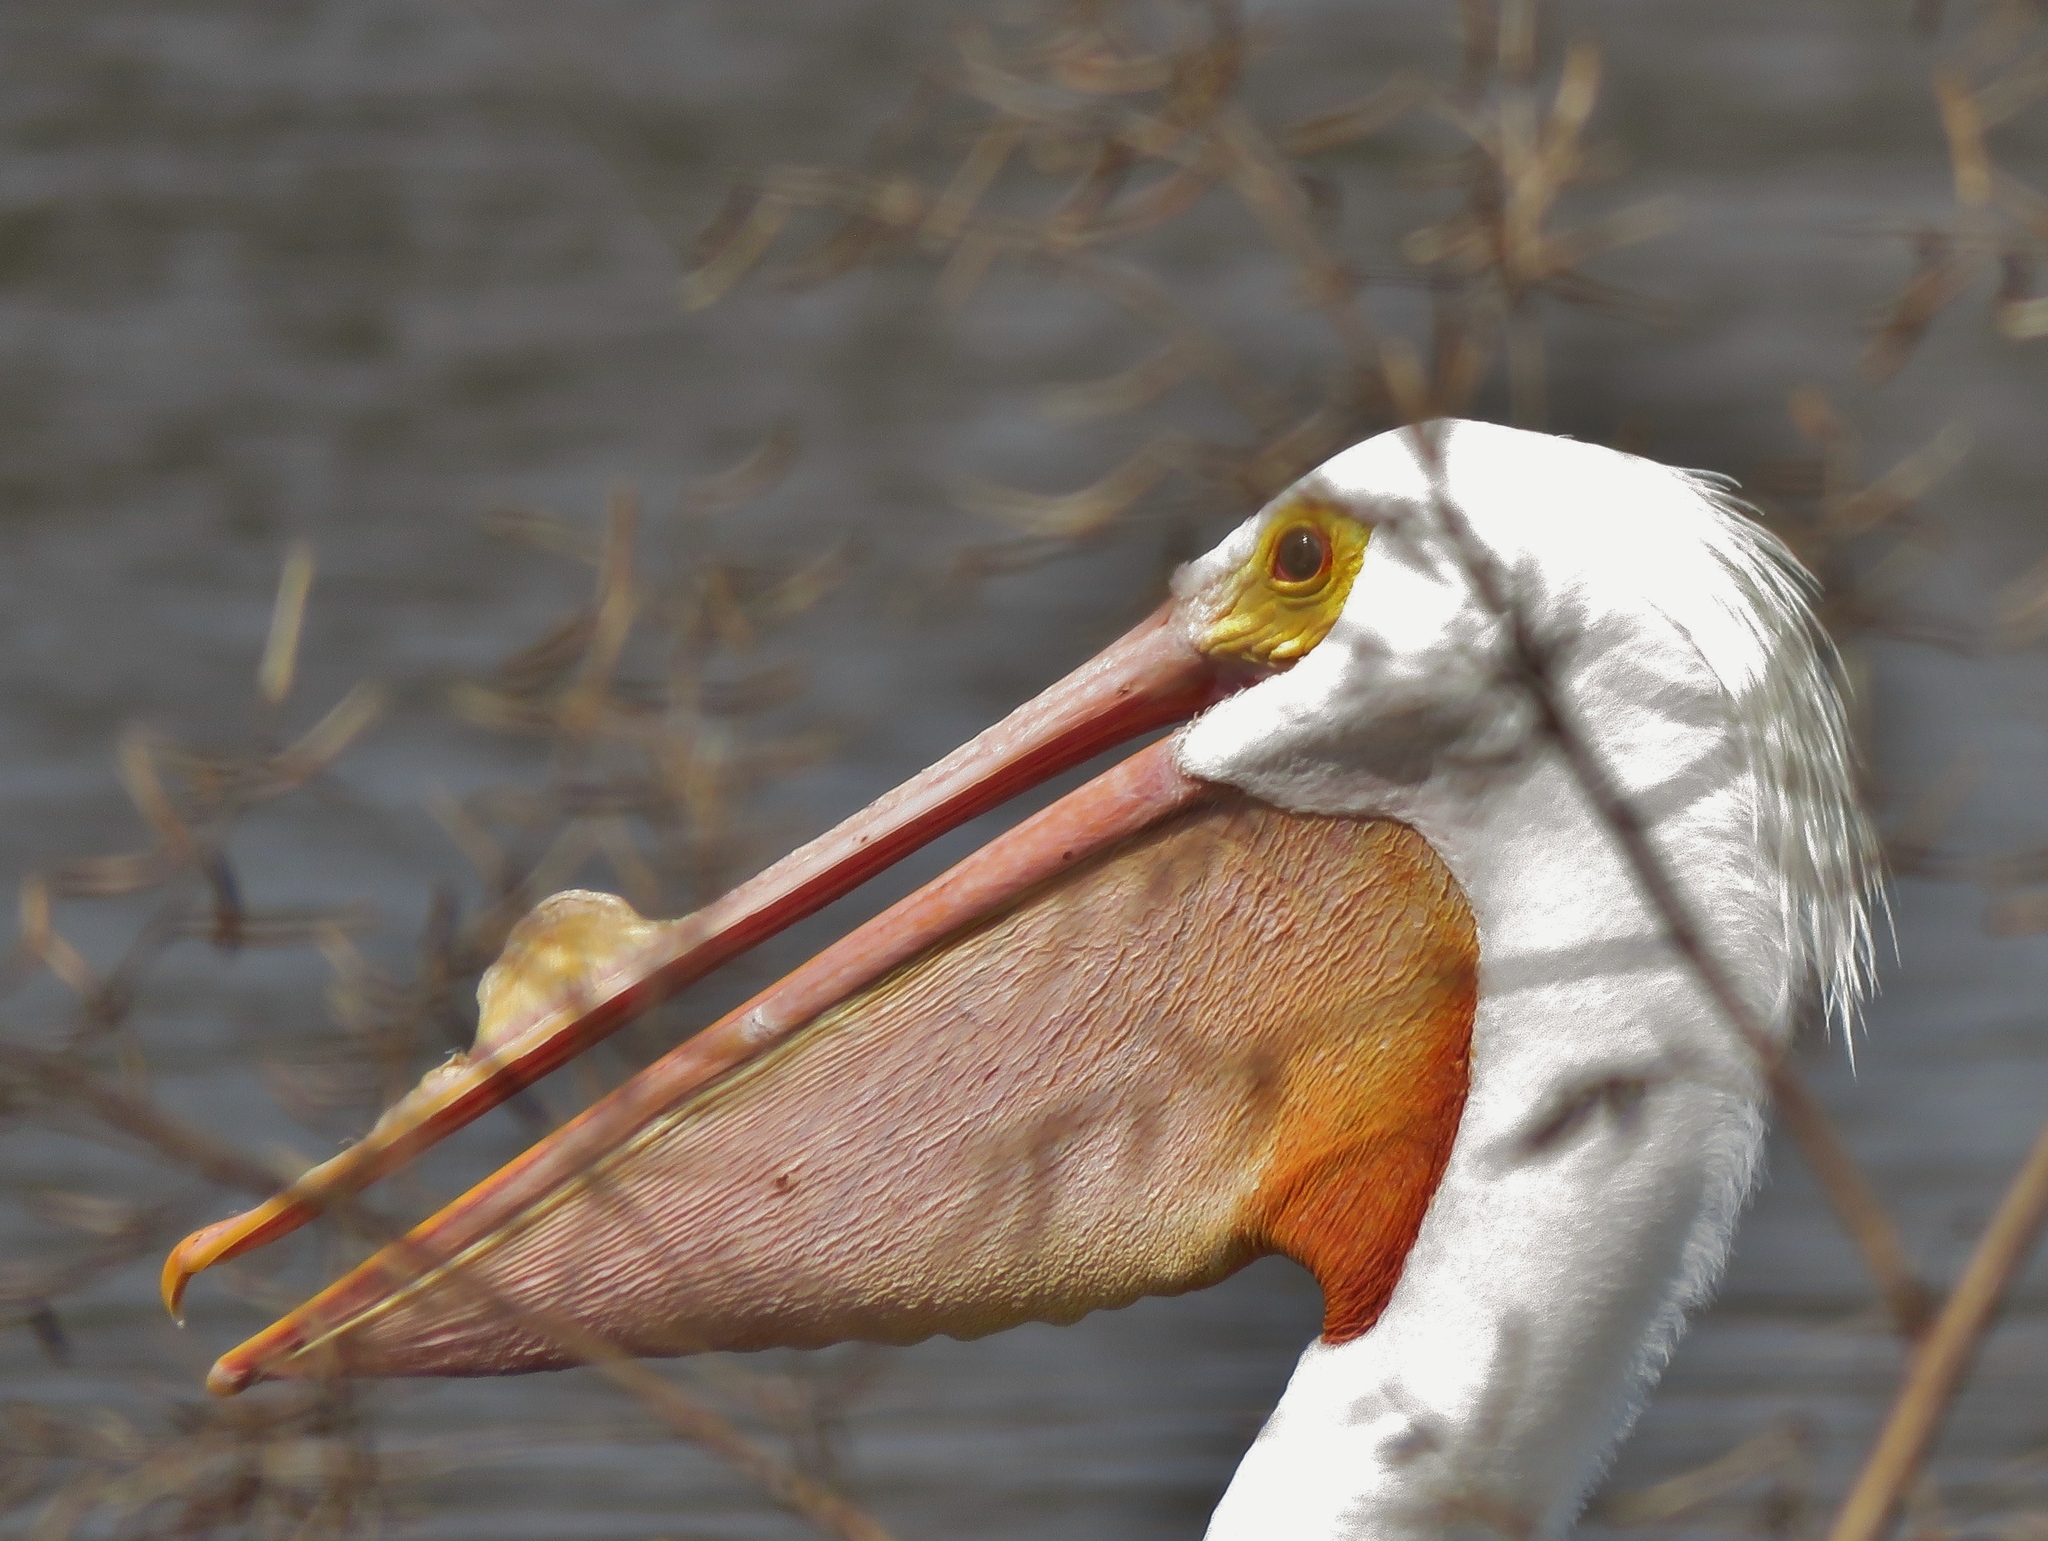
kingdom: Animalia
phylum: Chordata
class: Aves
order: Pelecaniformes
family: Pelecanidae
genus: Pelecanus
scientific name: Pelecanus erythrorhynchos
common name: American white pelican
